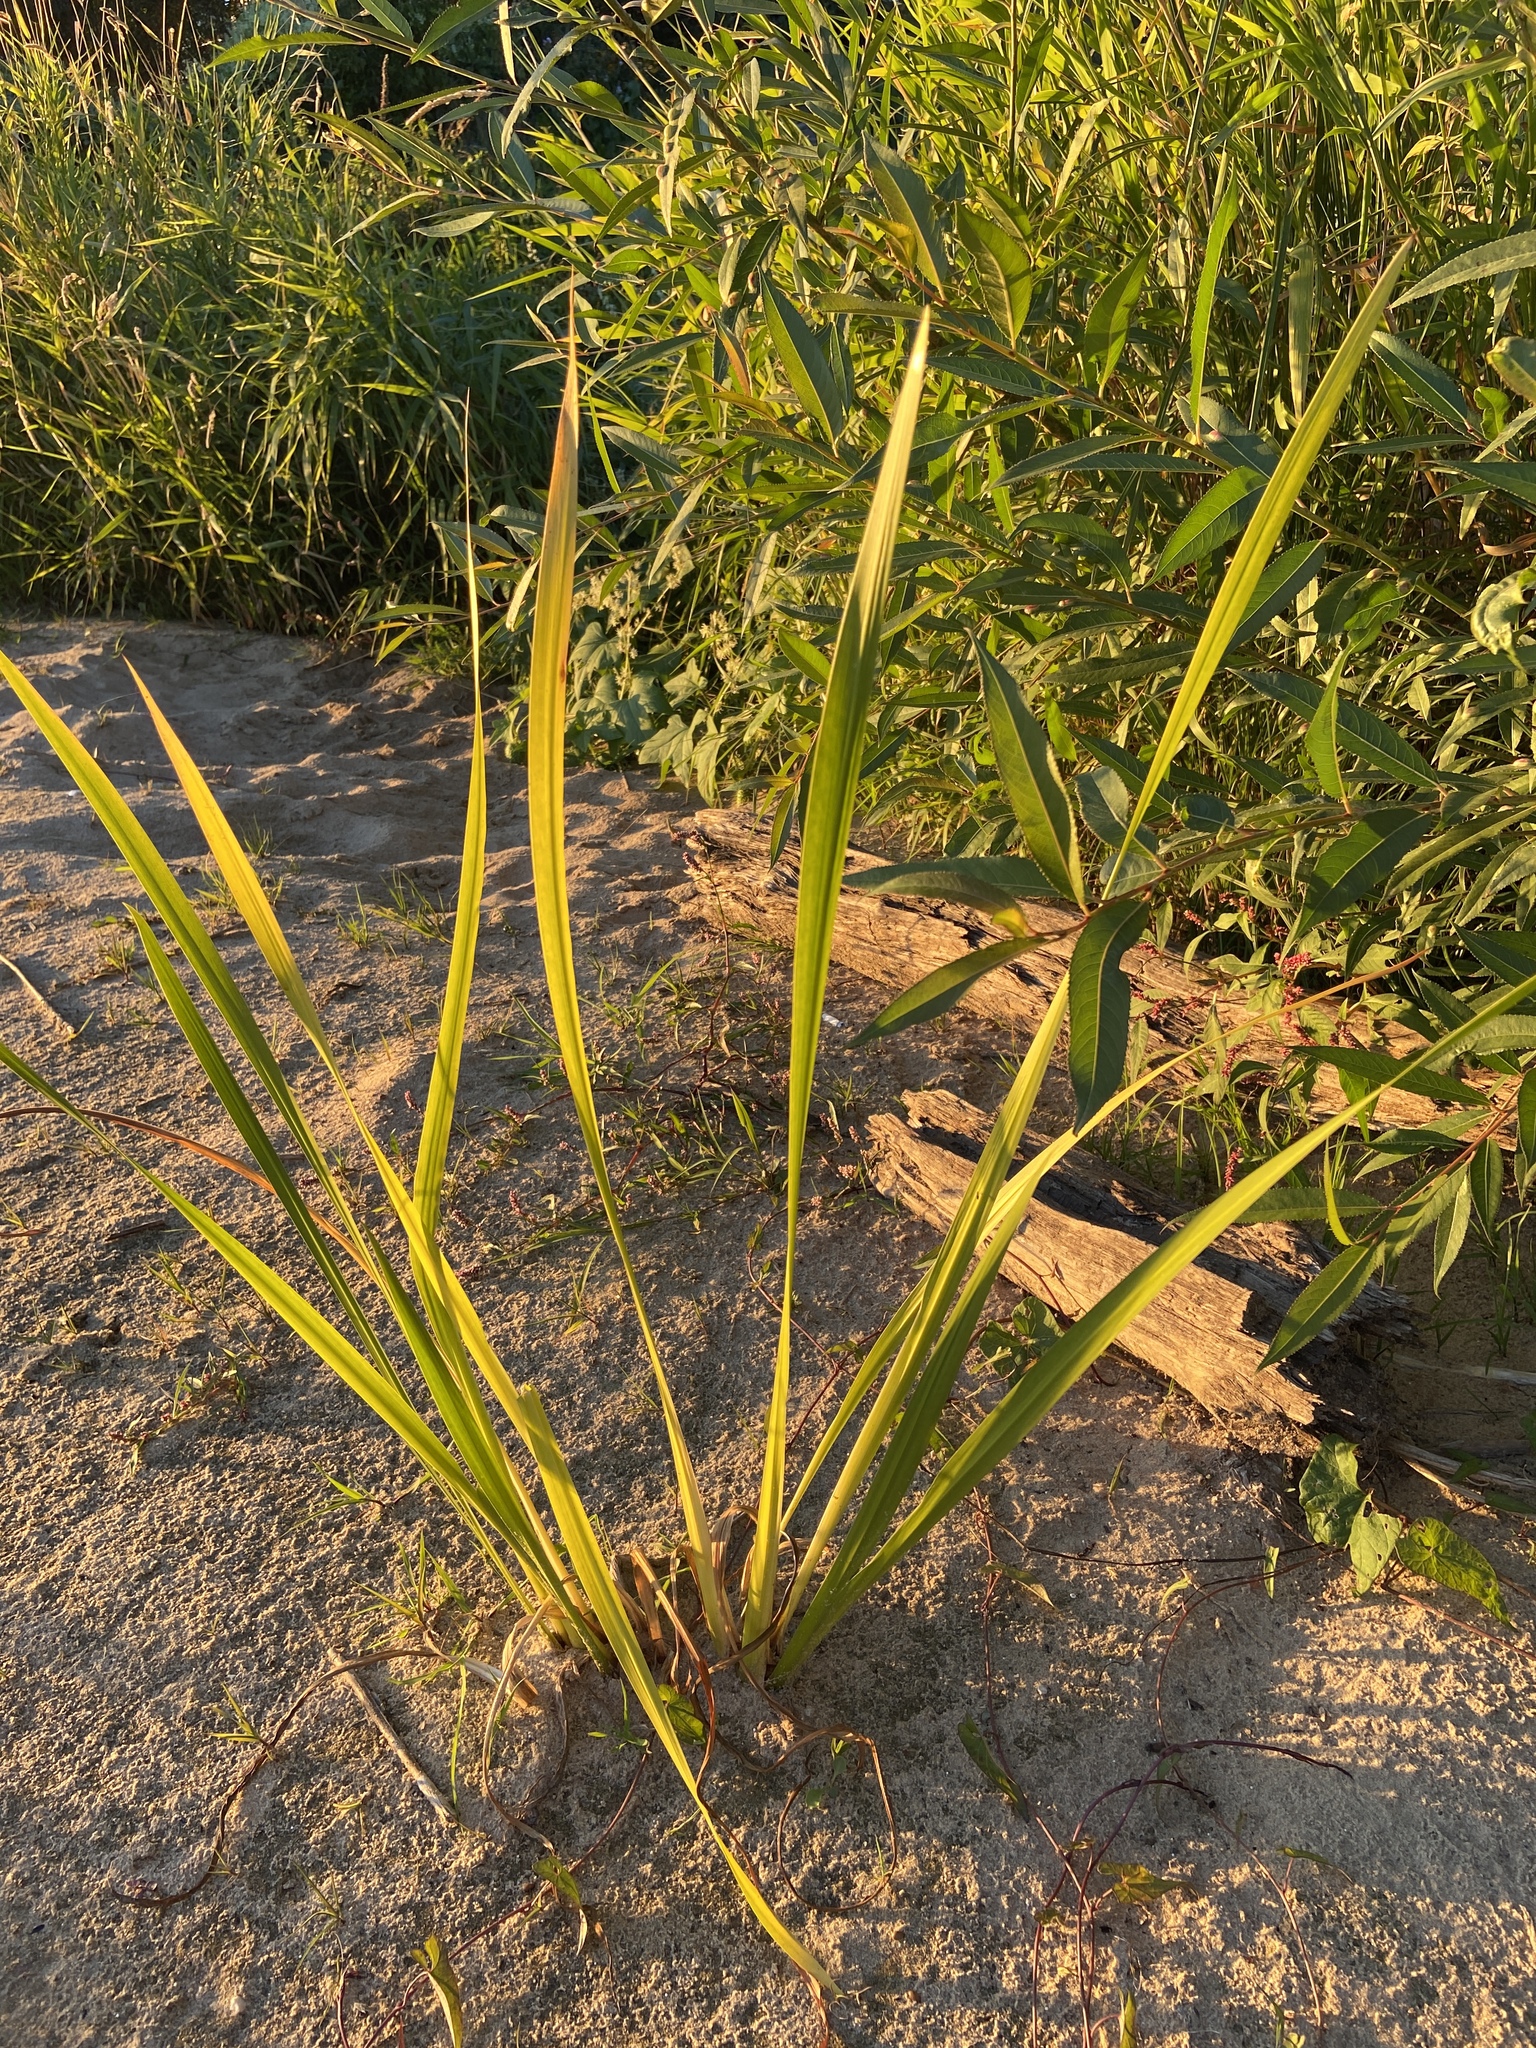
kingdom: Plantae
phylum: Tracheophyta
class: Liliopsida
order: Acorales
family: Acoraceae
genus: Acorus
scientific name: Acorus calamus
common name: Sweet-flag
